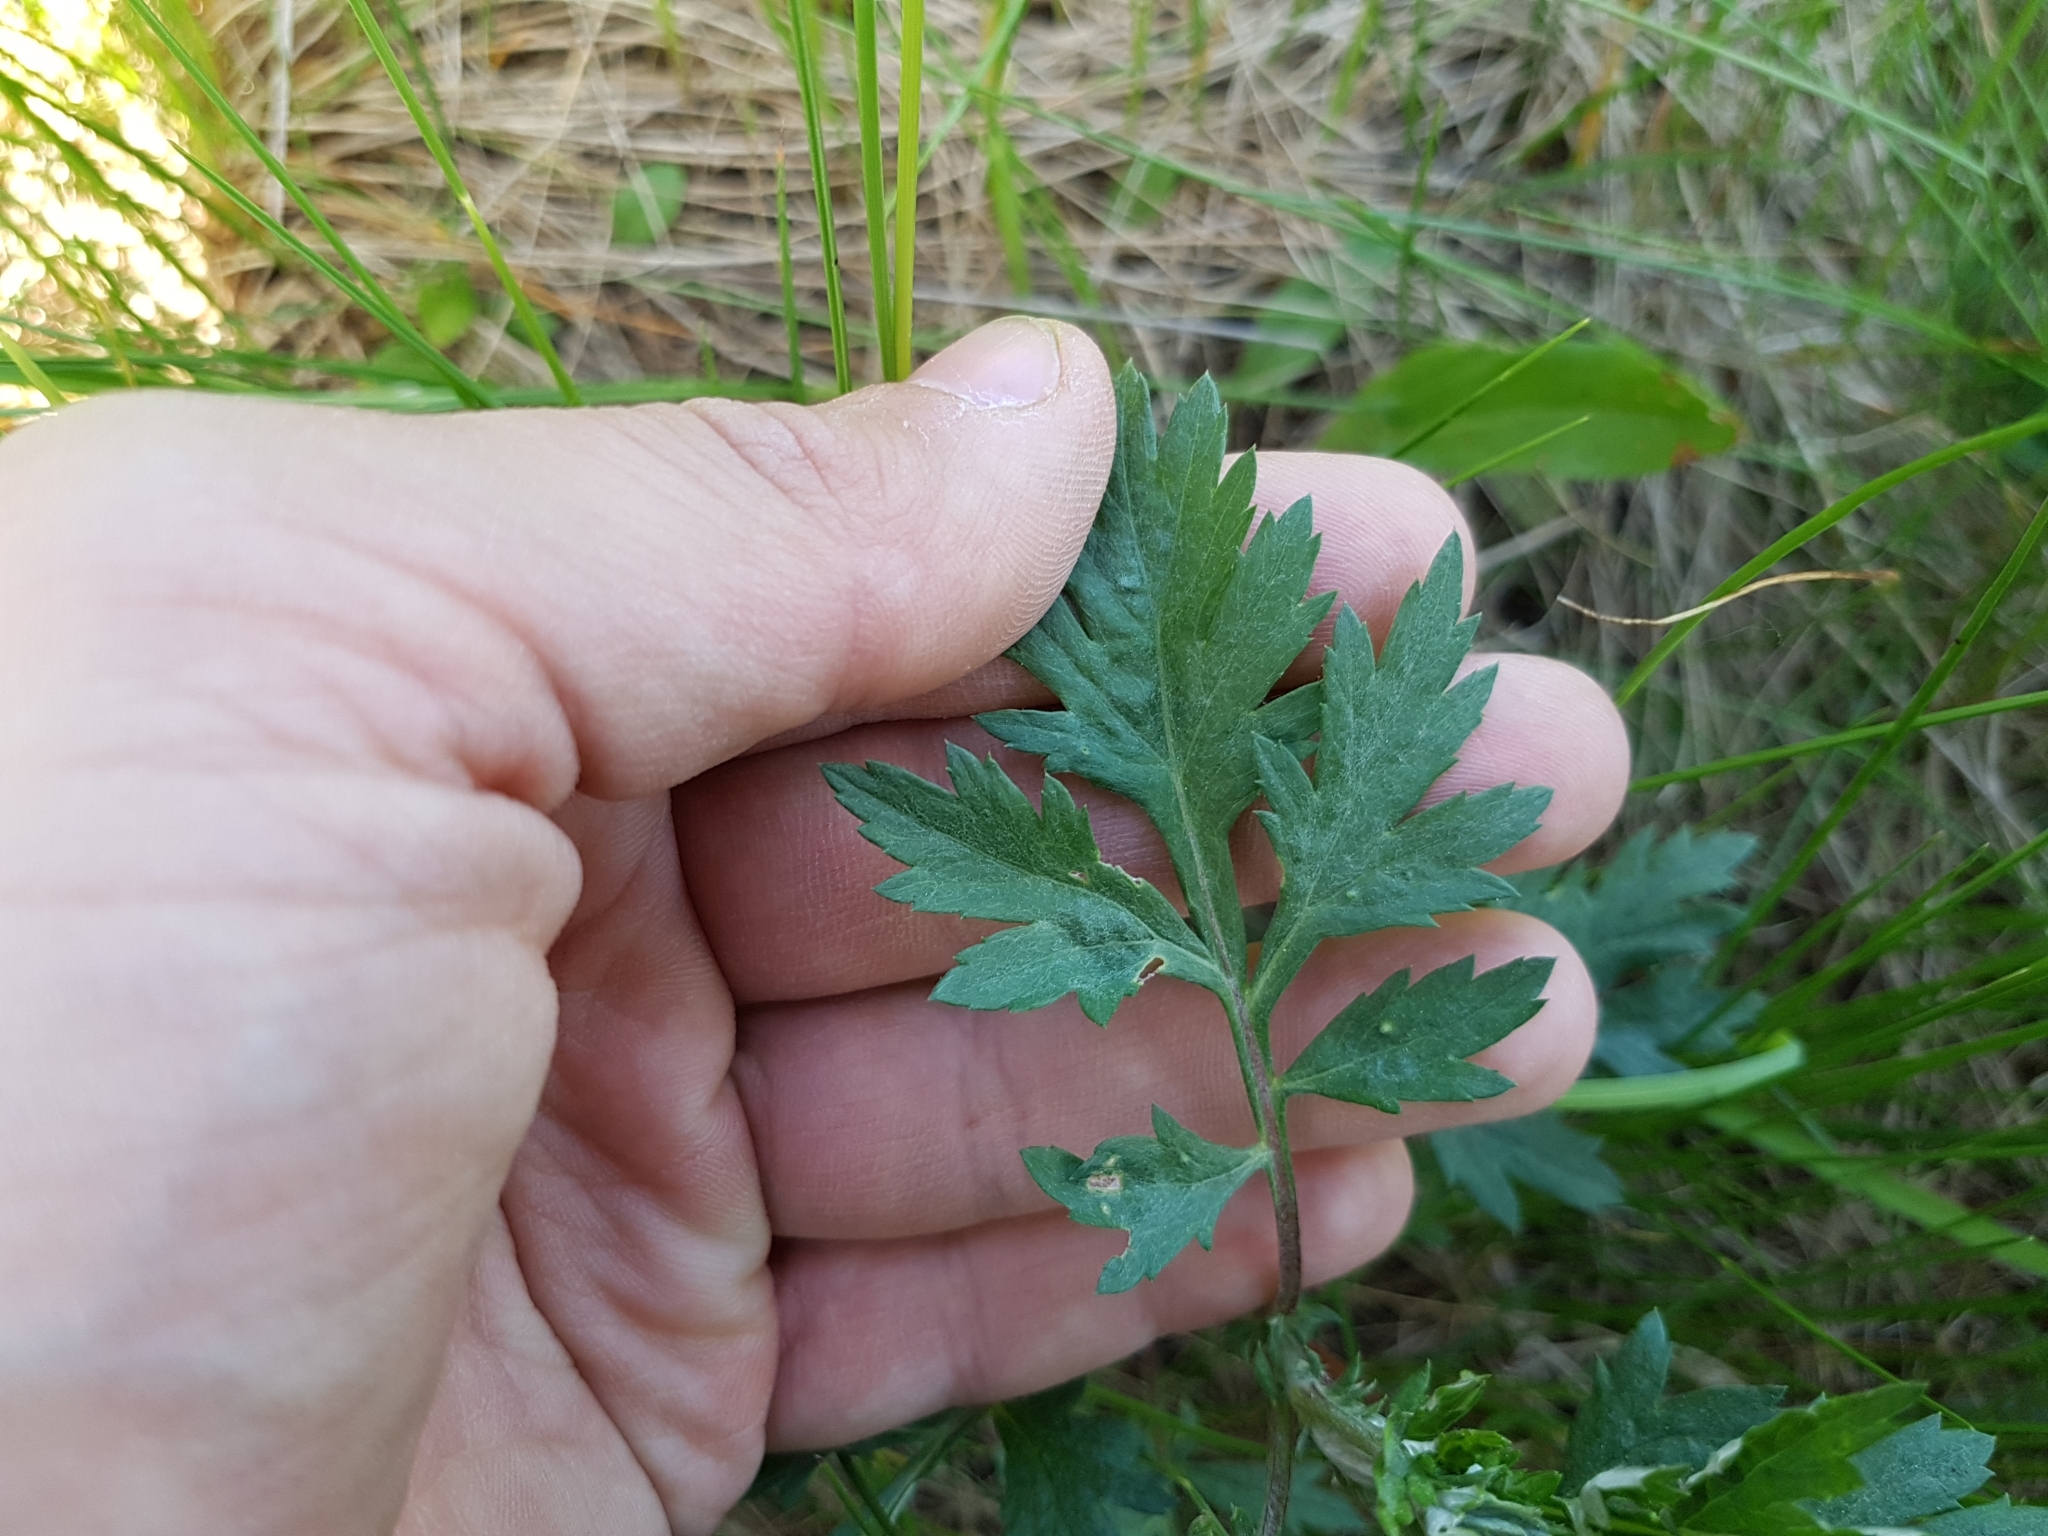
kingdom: Plantae
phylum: Tracheophyta
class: Magnoliopsida
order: Asterales
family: Asteraceae
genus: Artemisia
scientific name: Artemisia vulgaris
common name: Mugwort
